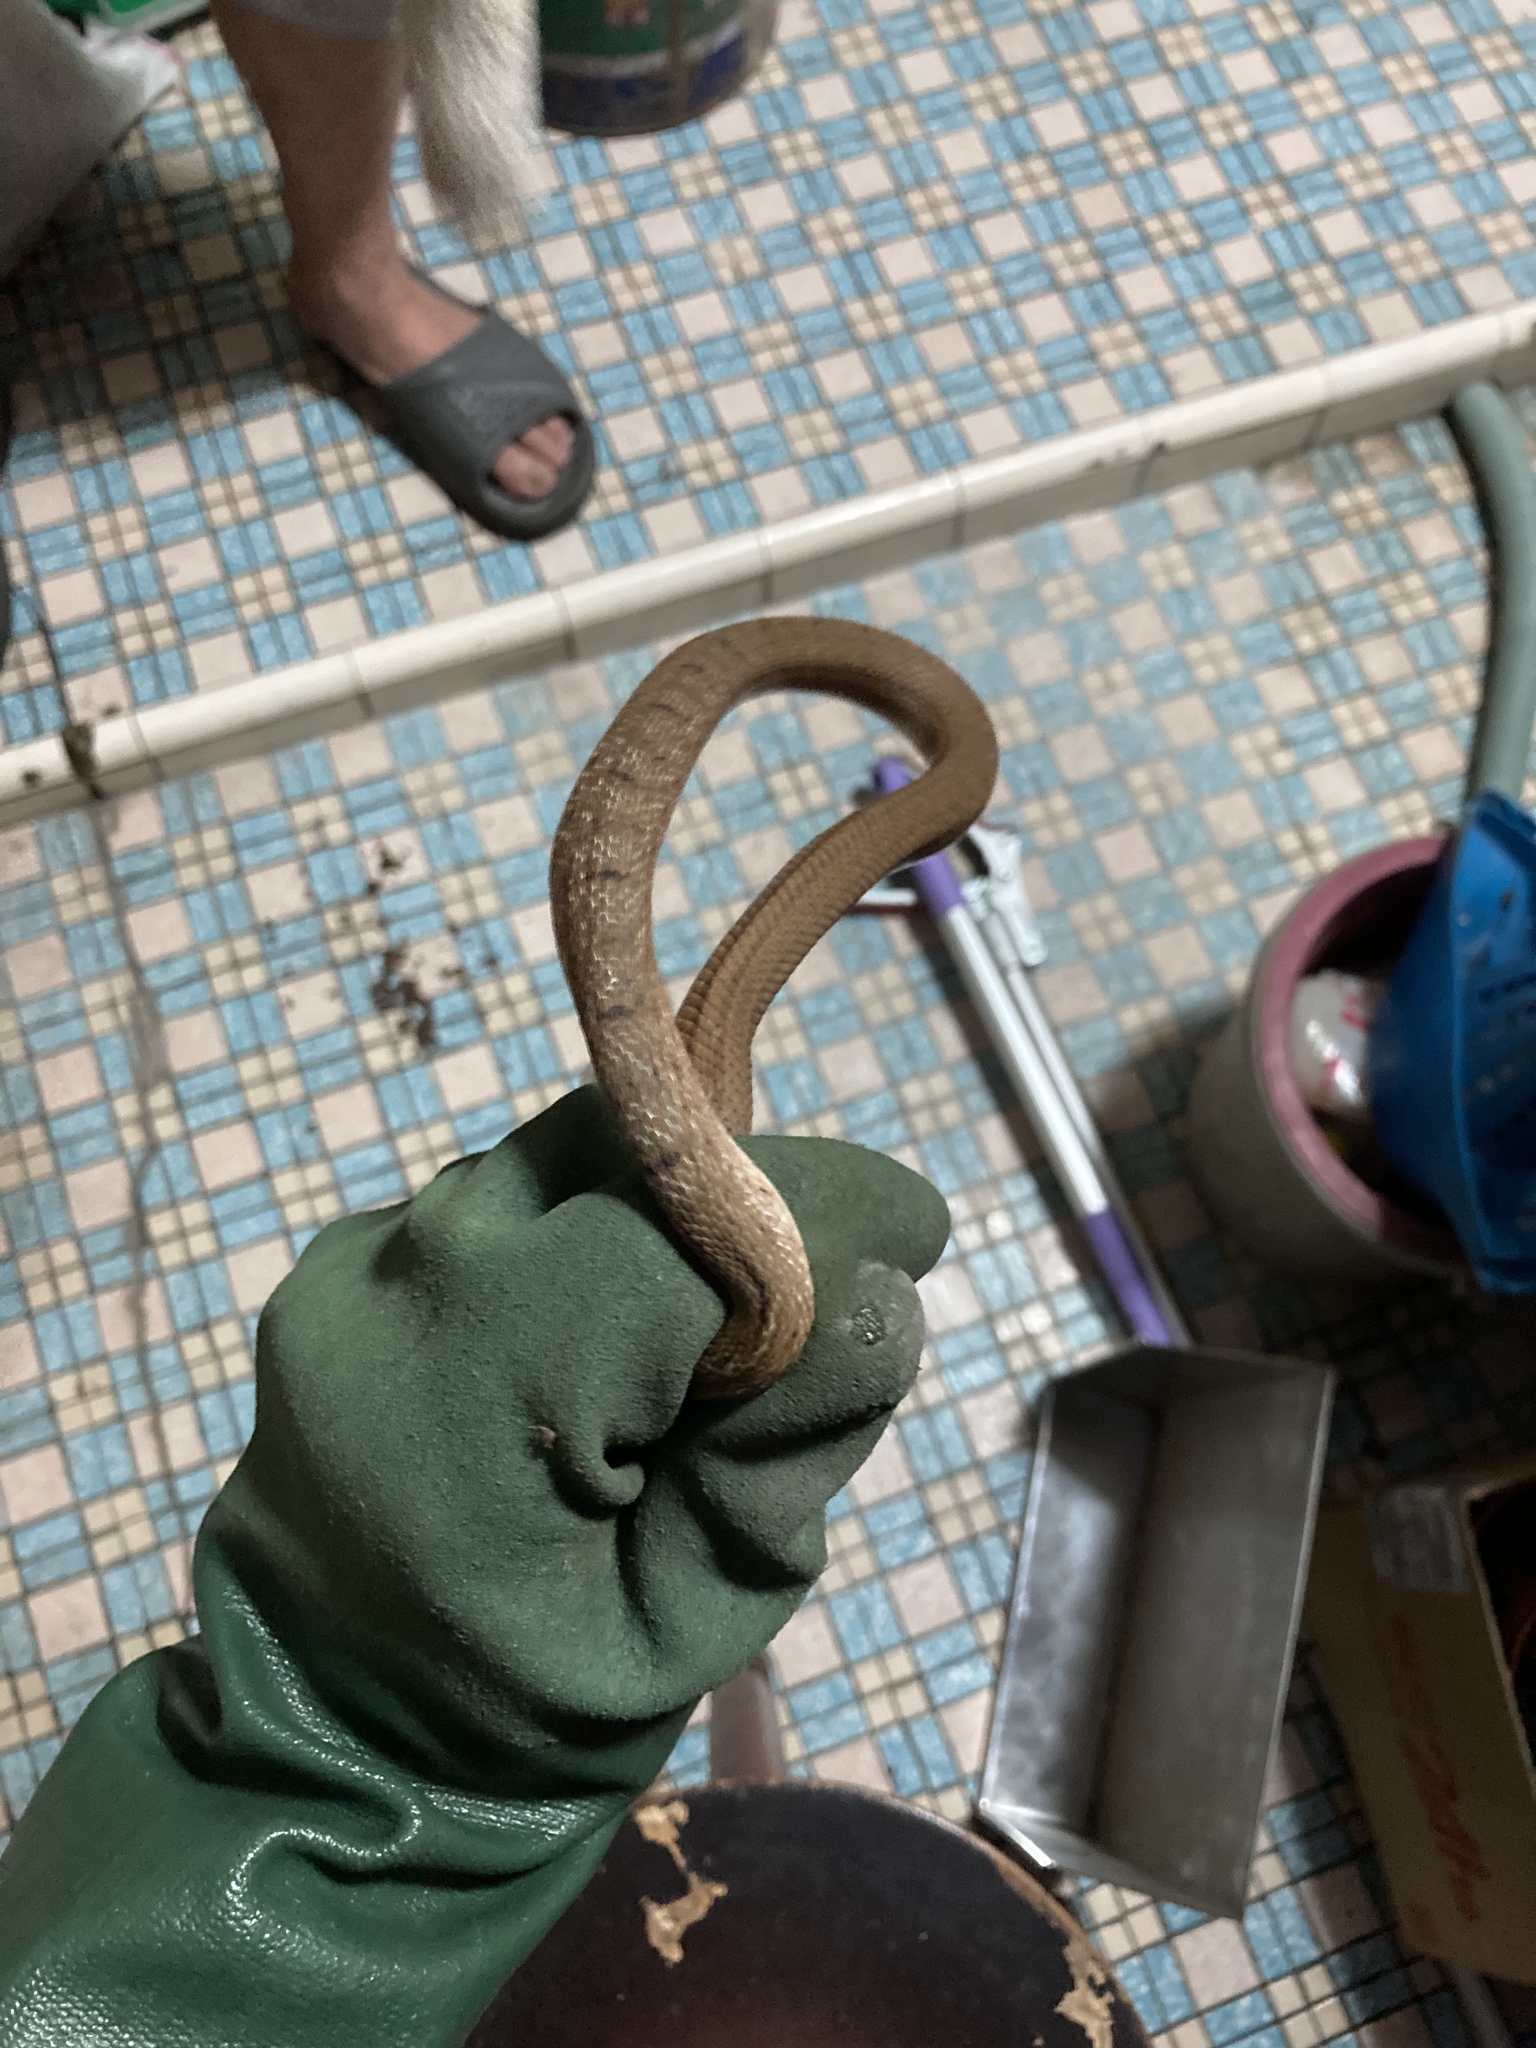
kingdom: Animalia
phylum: Chordata
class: Squamata
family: Colubridae
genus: Elaphe
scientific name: Elaphe carinata
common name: Taiwan stink snake
